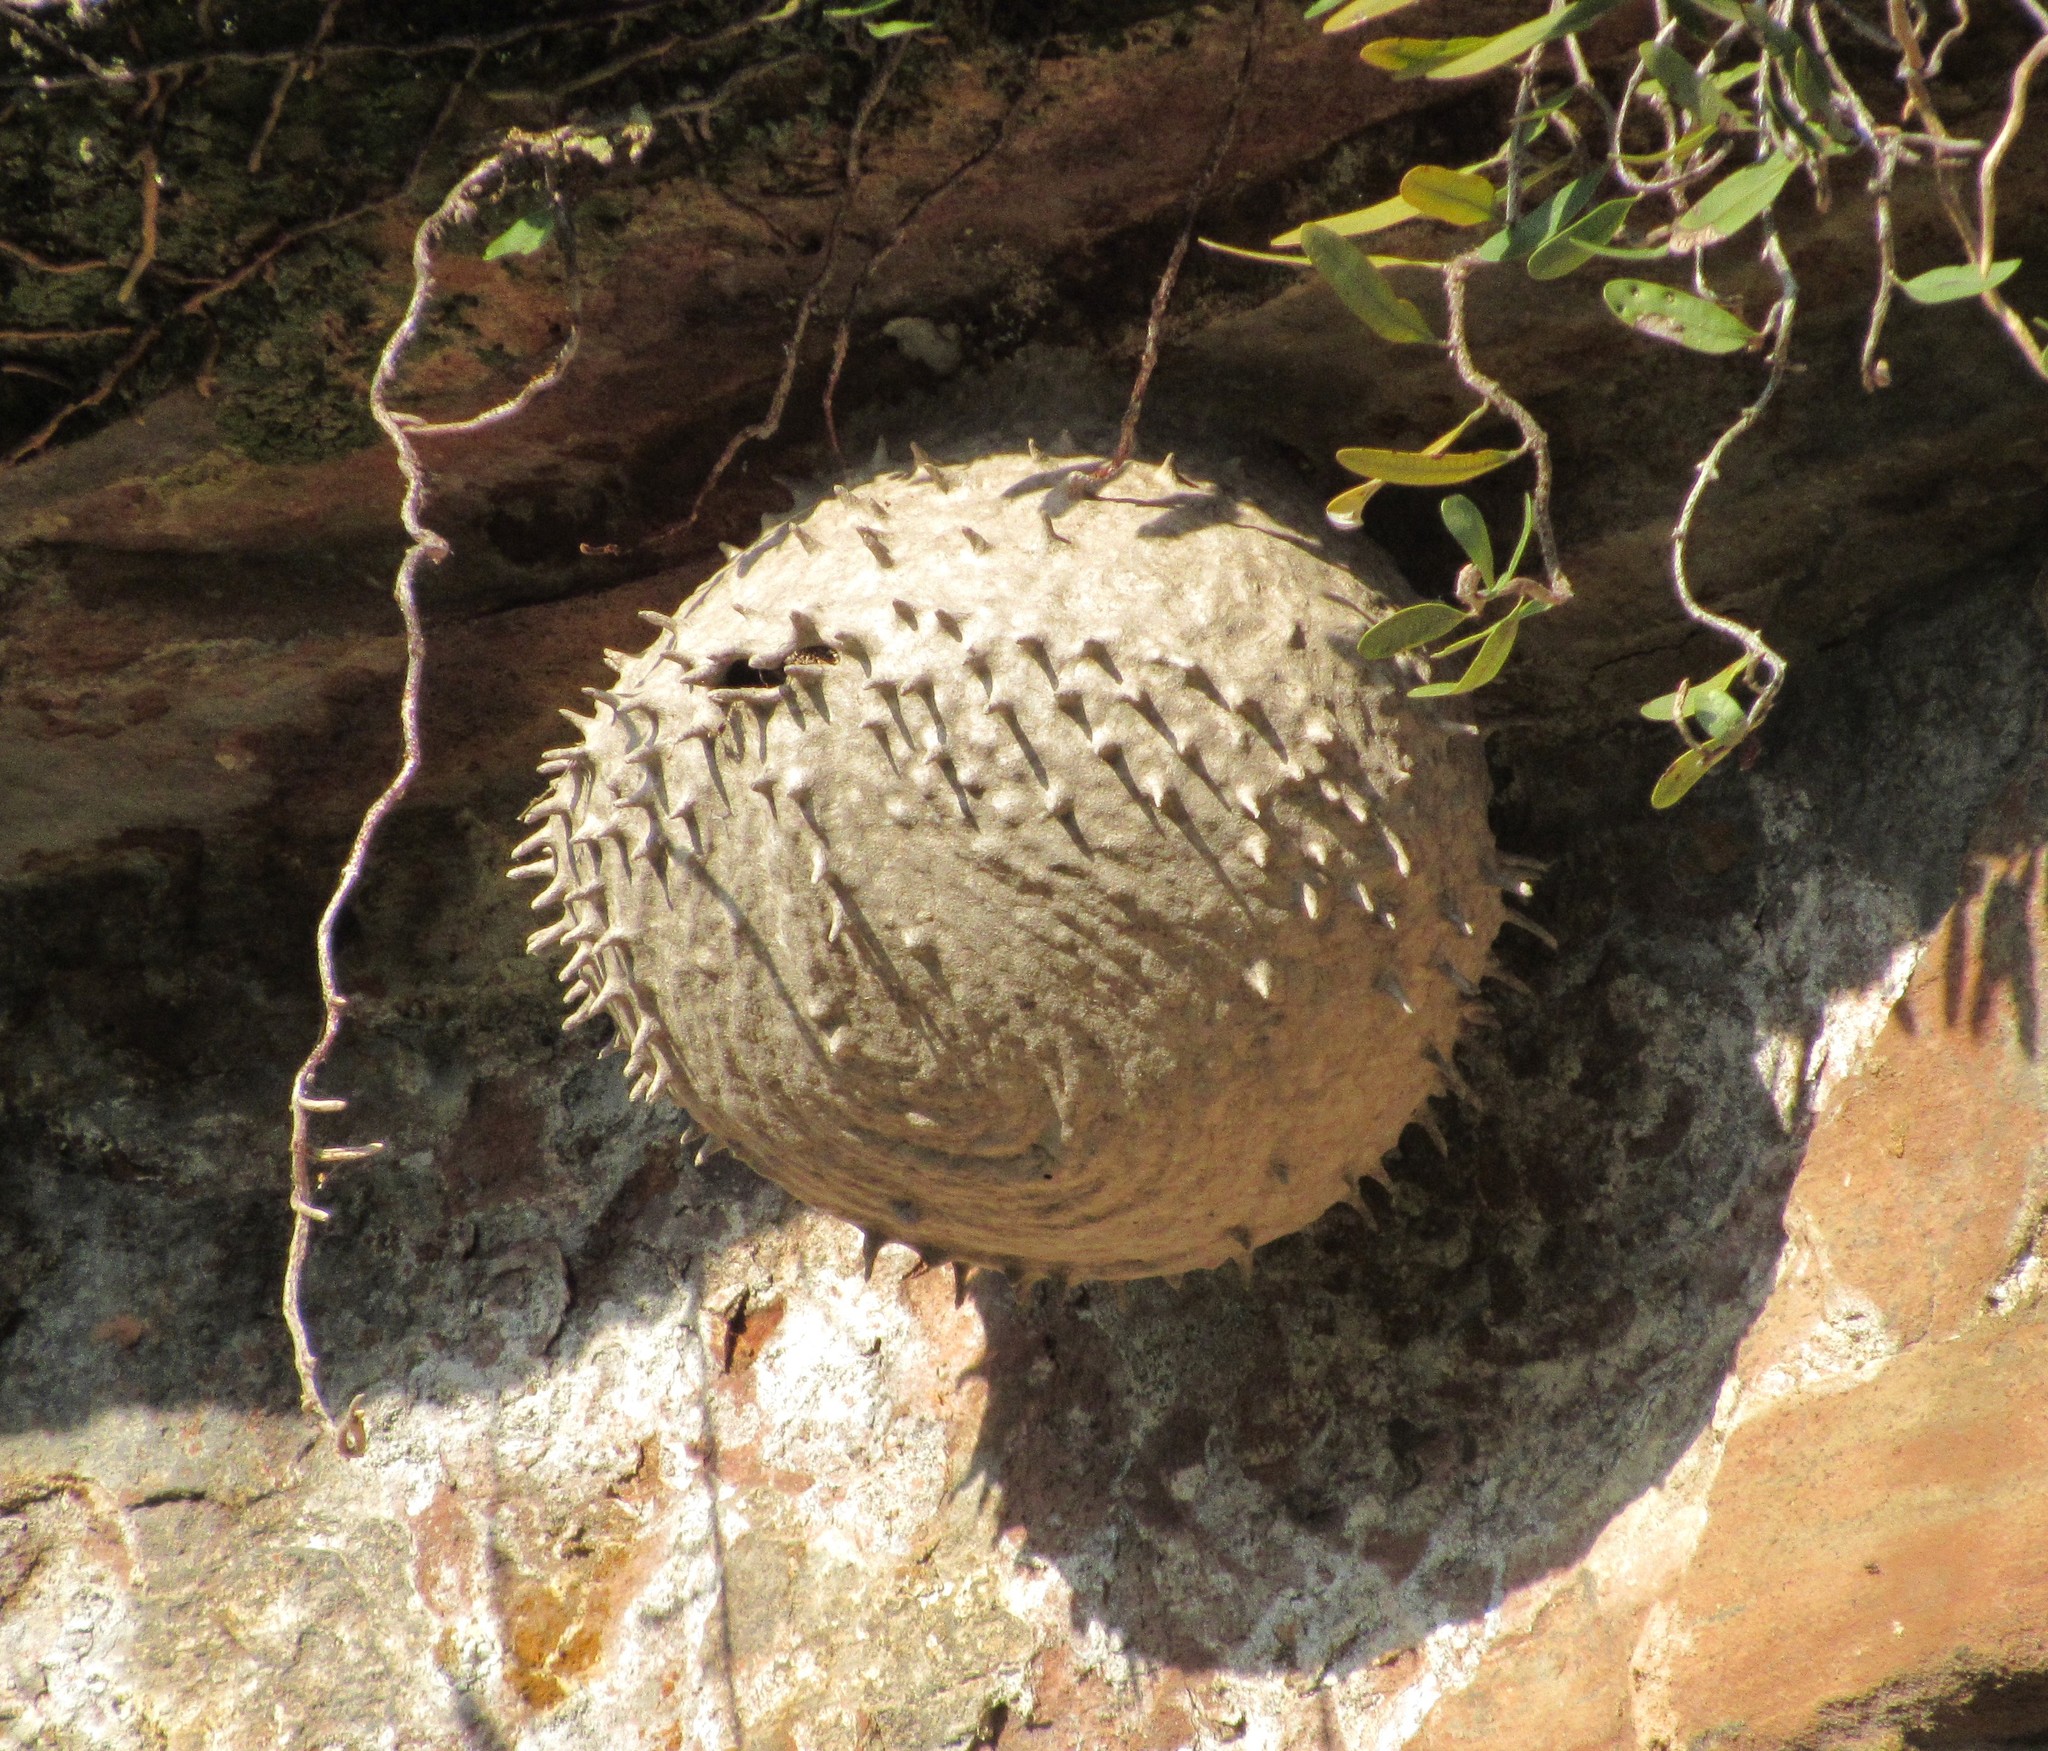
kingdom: Animalia
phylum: Arthropoda
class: Insecta
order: Hymenoptera
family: Eumenidae
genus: Polybia
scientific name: Polybia scutellaris
